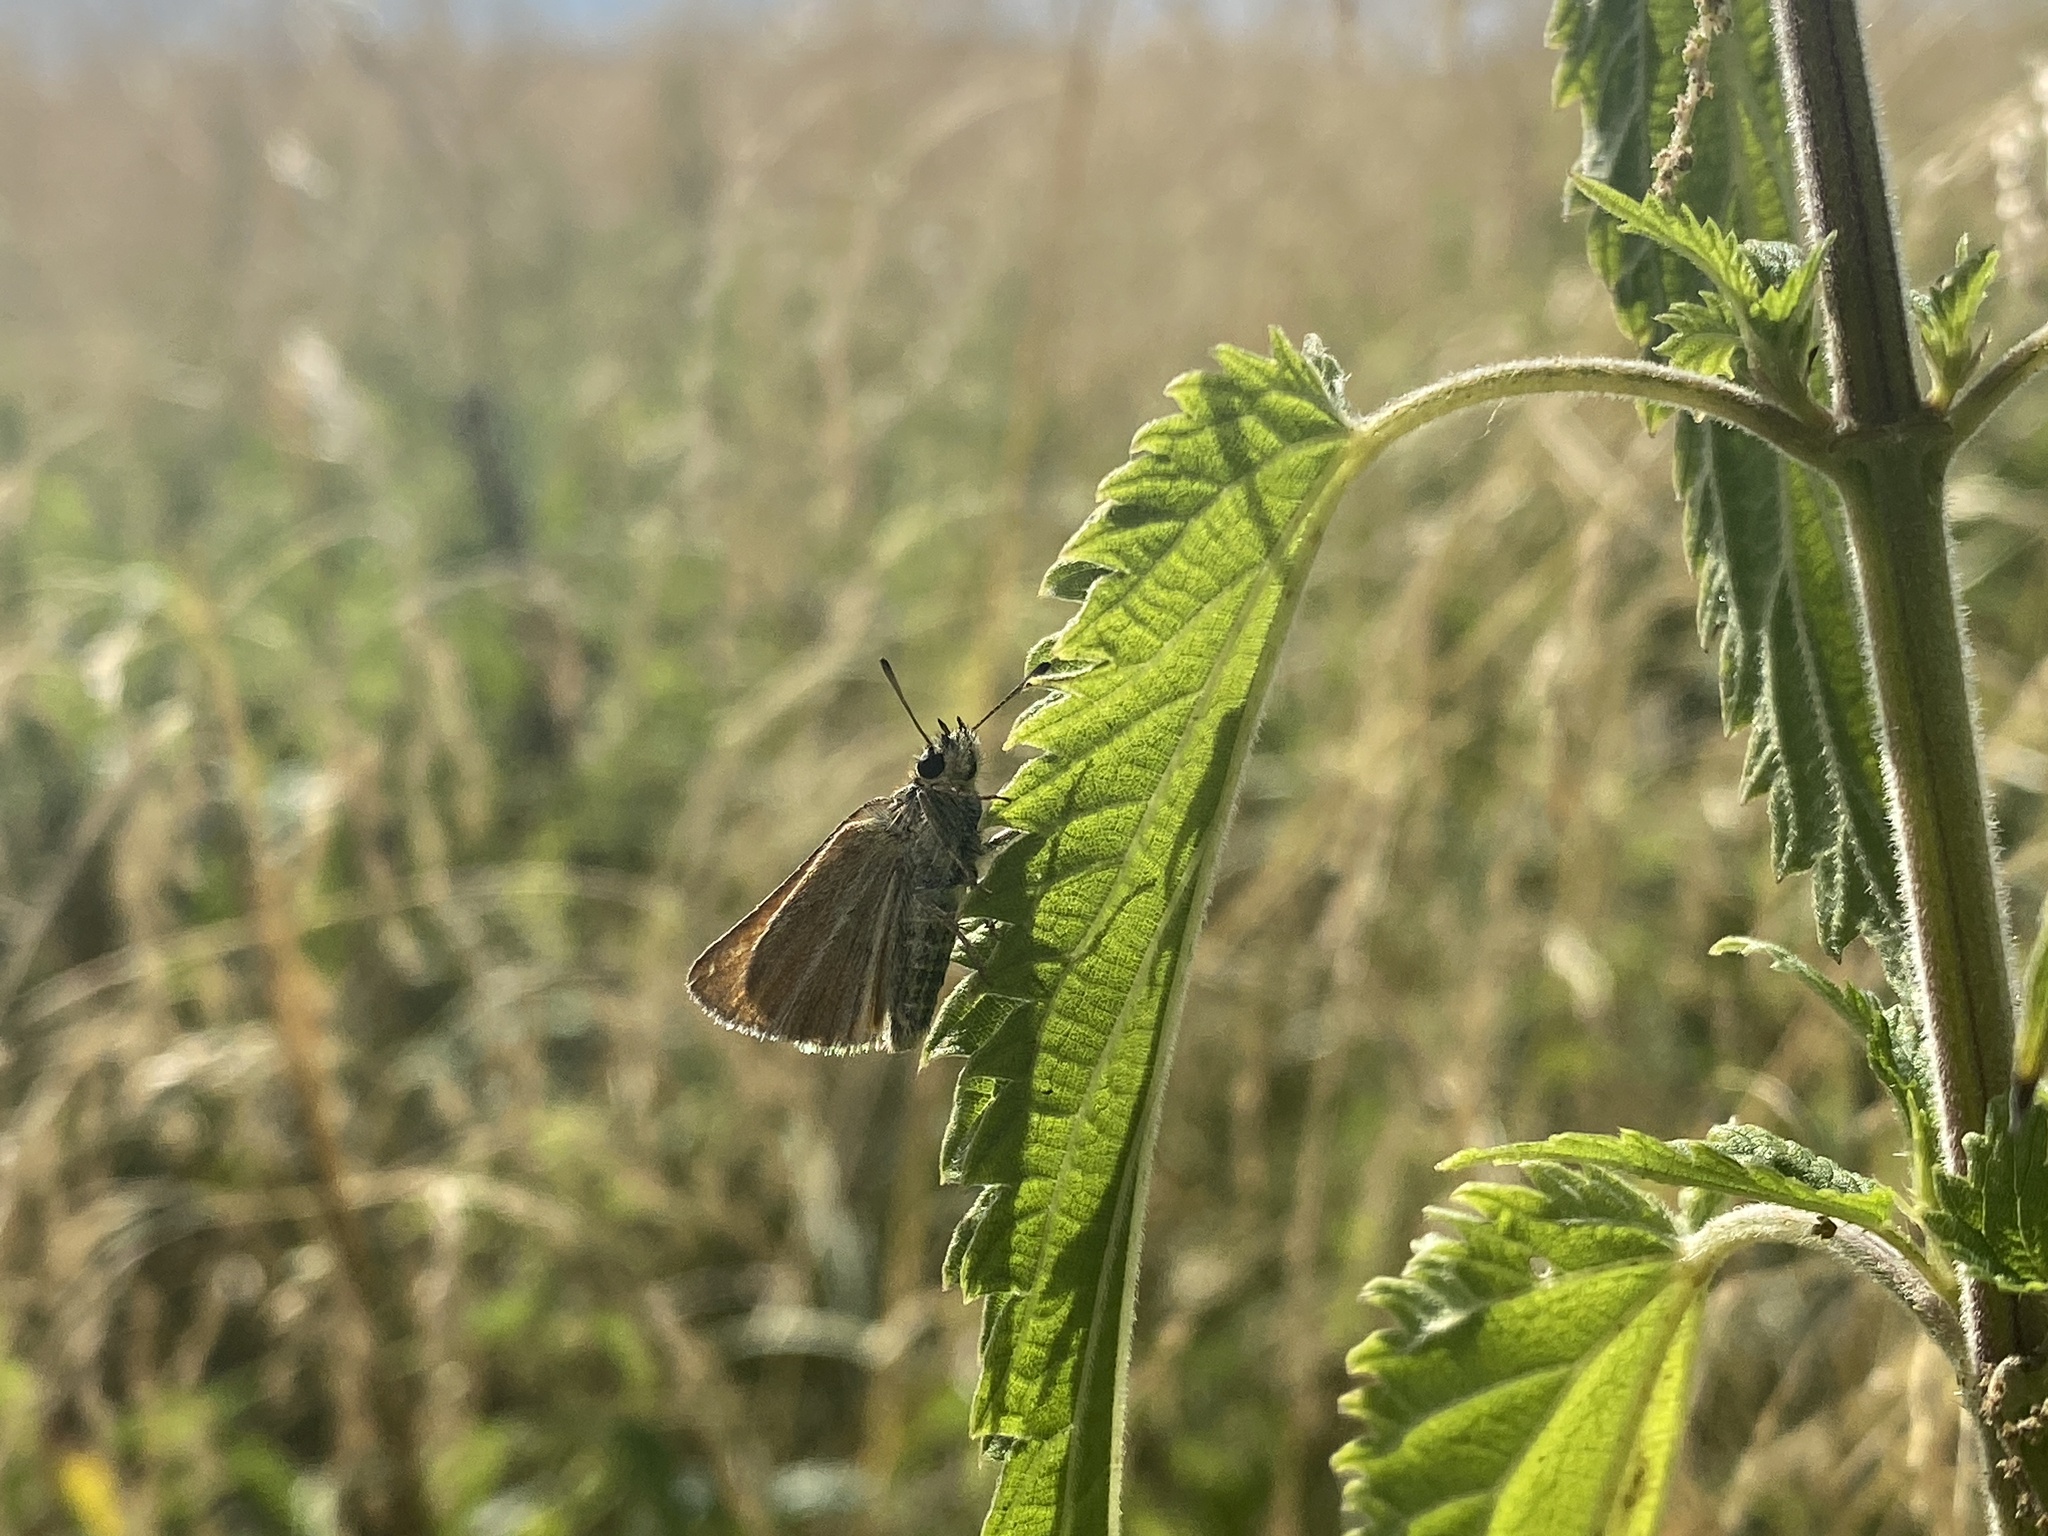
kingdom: Animalia
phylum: Arthropoda
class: Insecta
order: Lepidoptera
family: Hesperiidae
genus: Thymelicus
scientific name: Thymelicus lineola
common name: Essex skipper
